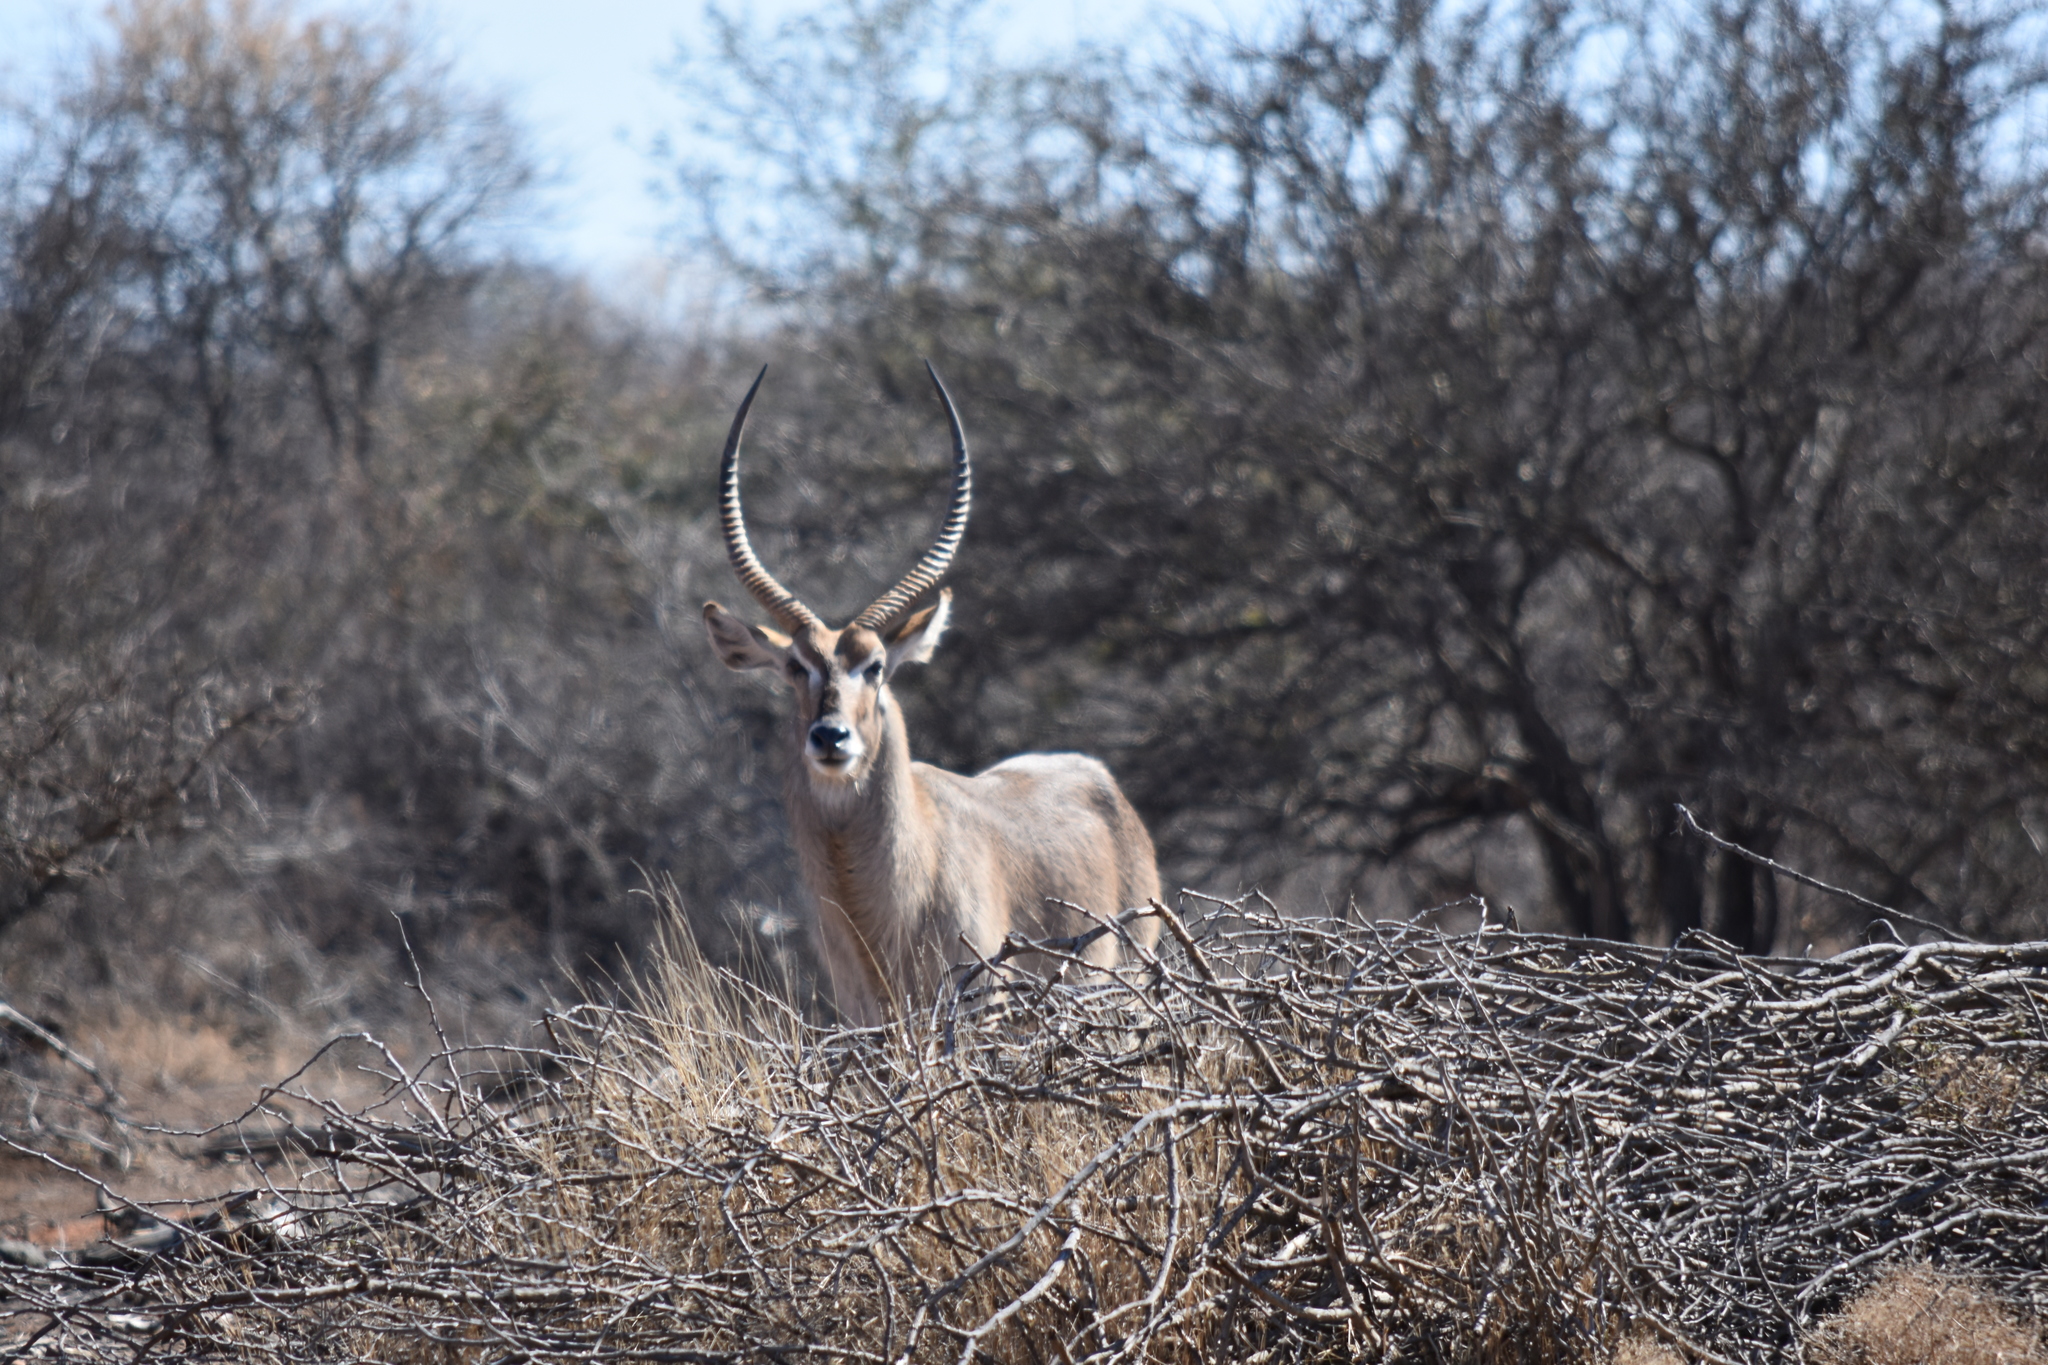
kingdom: Animalia
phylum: Chordata
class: Mammalia
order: Artiodactyla
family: Bovidae
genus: Kobus
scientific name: Kobus ellipsiprymnus
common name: Waterbuck
